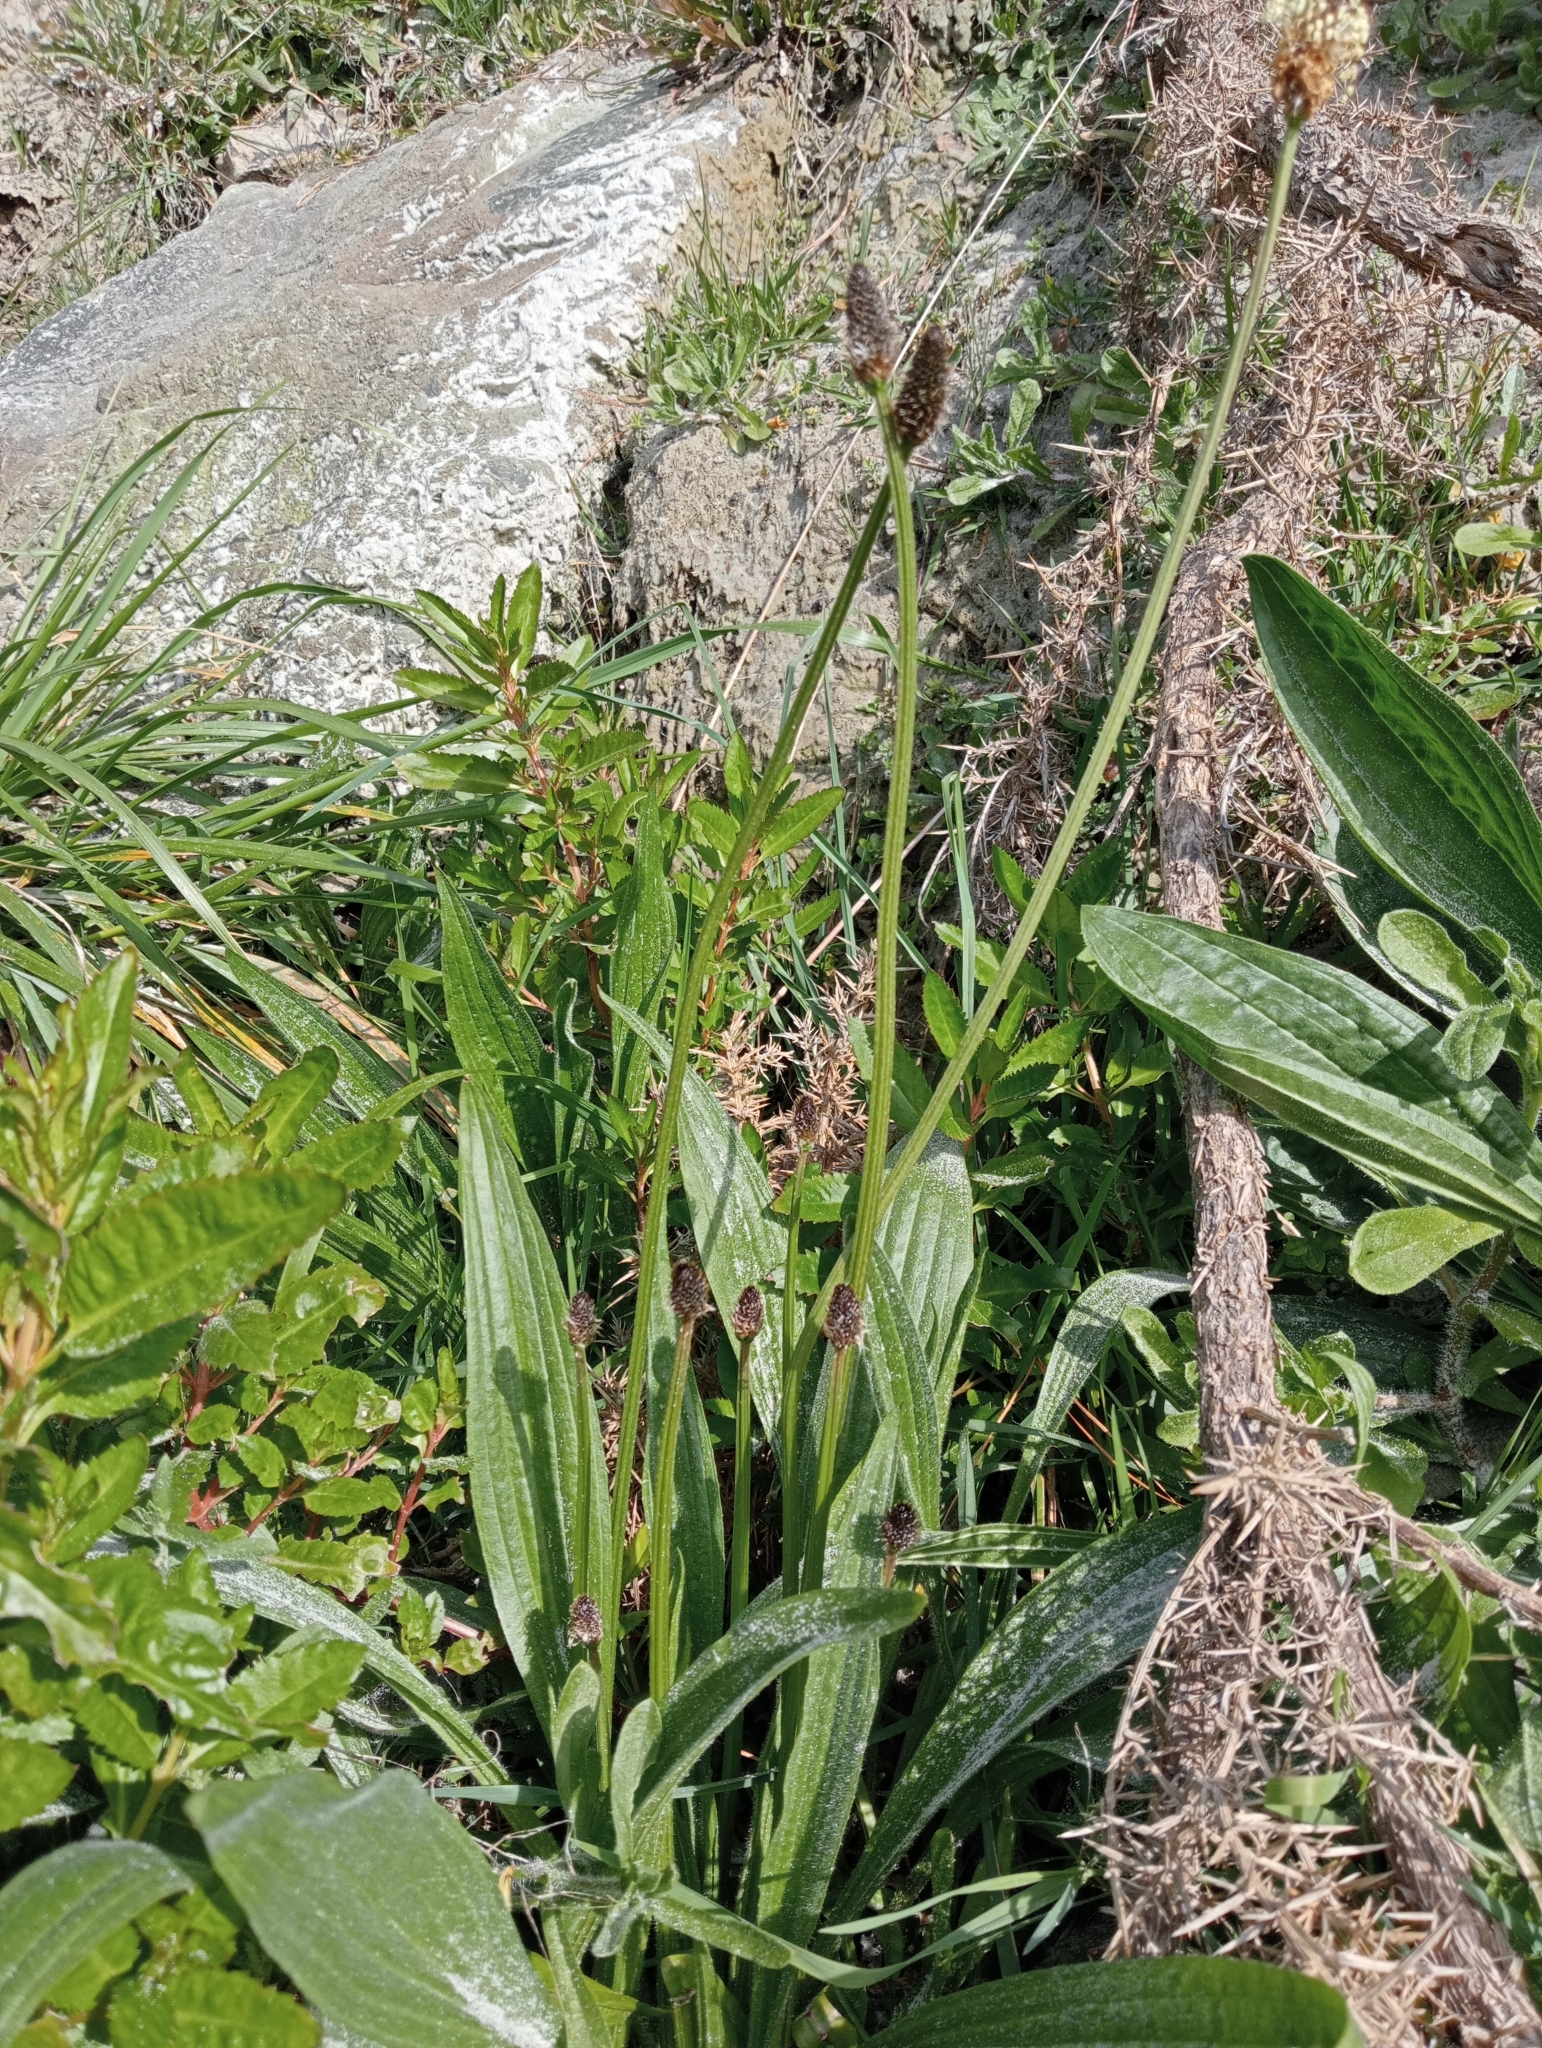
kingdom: Plantae
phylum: Tracheophyta
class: Magnoliopsida
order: Lamiales
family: Plantaginaceae
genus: Plantago
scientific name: Plantago lanceolata
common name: Ribwort plantain
